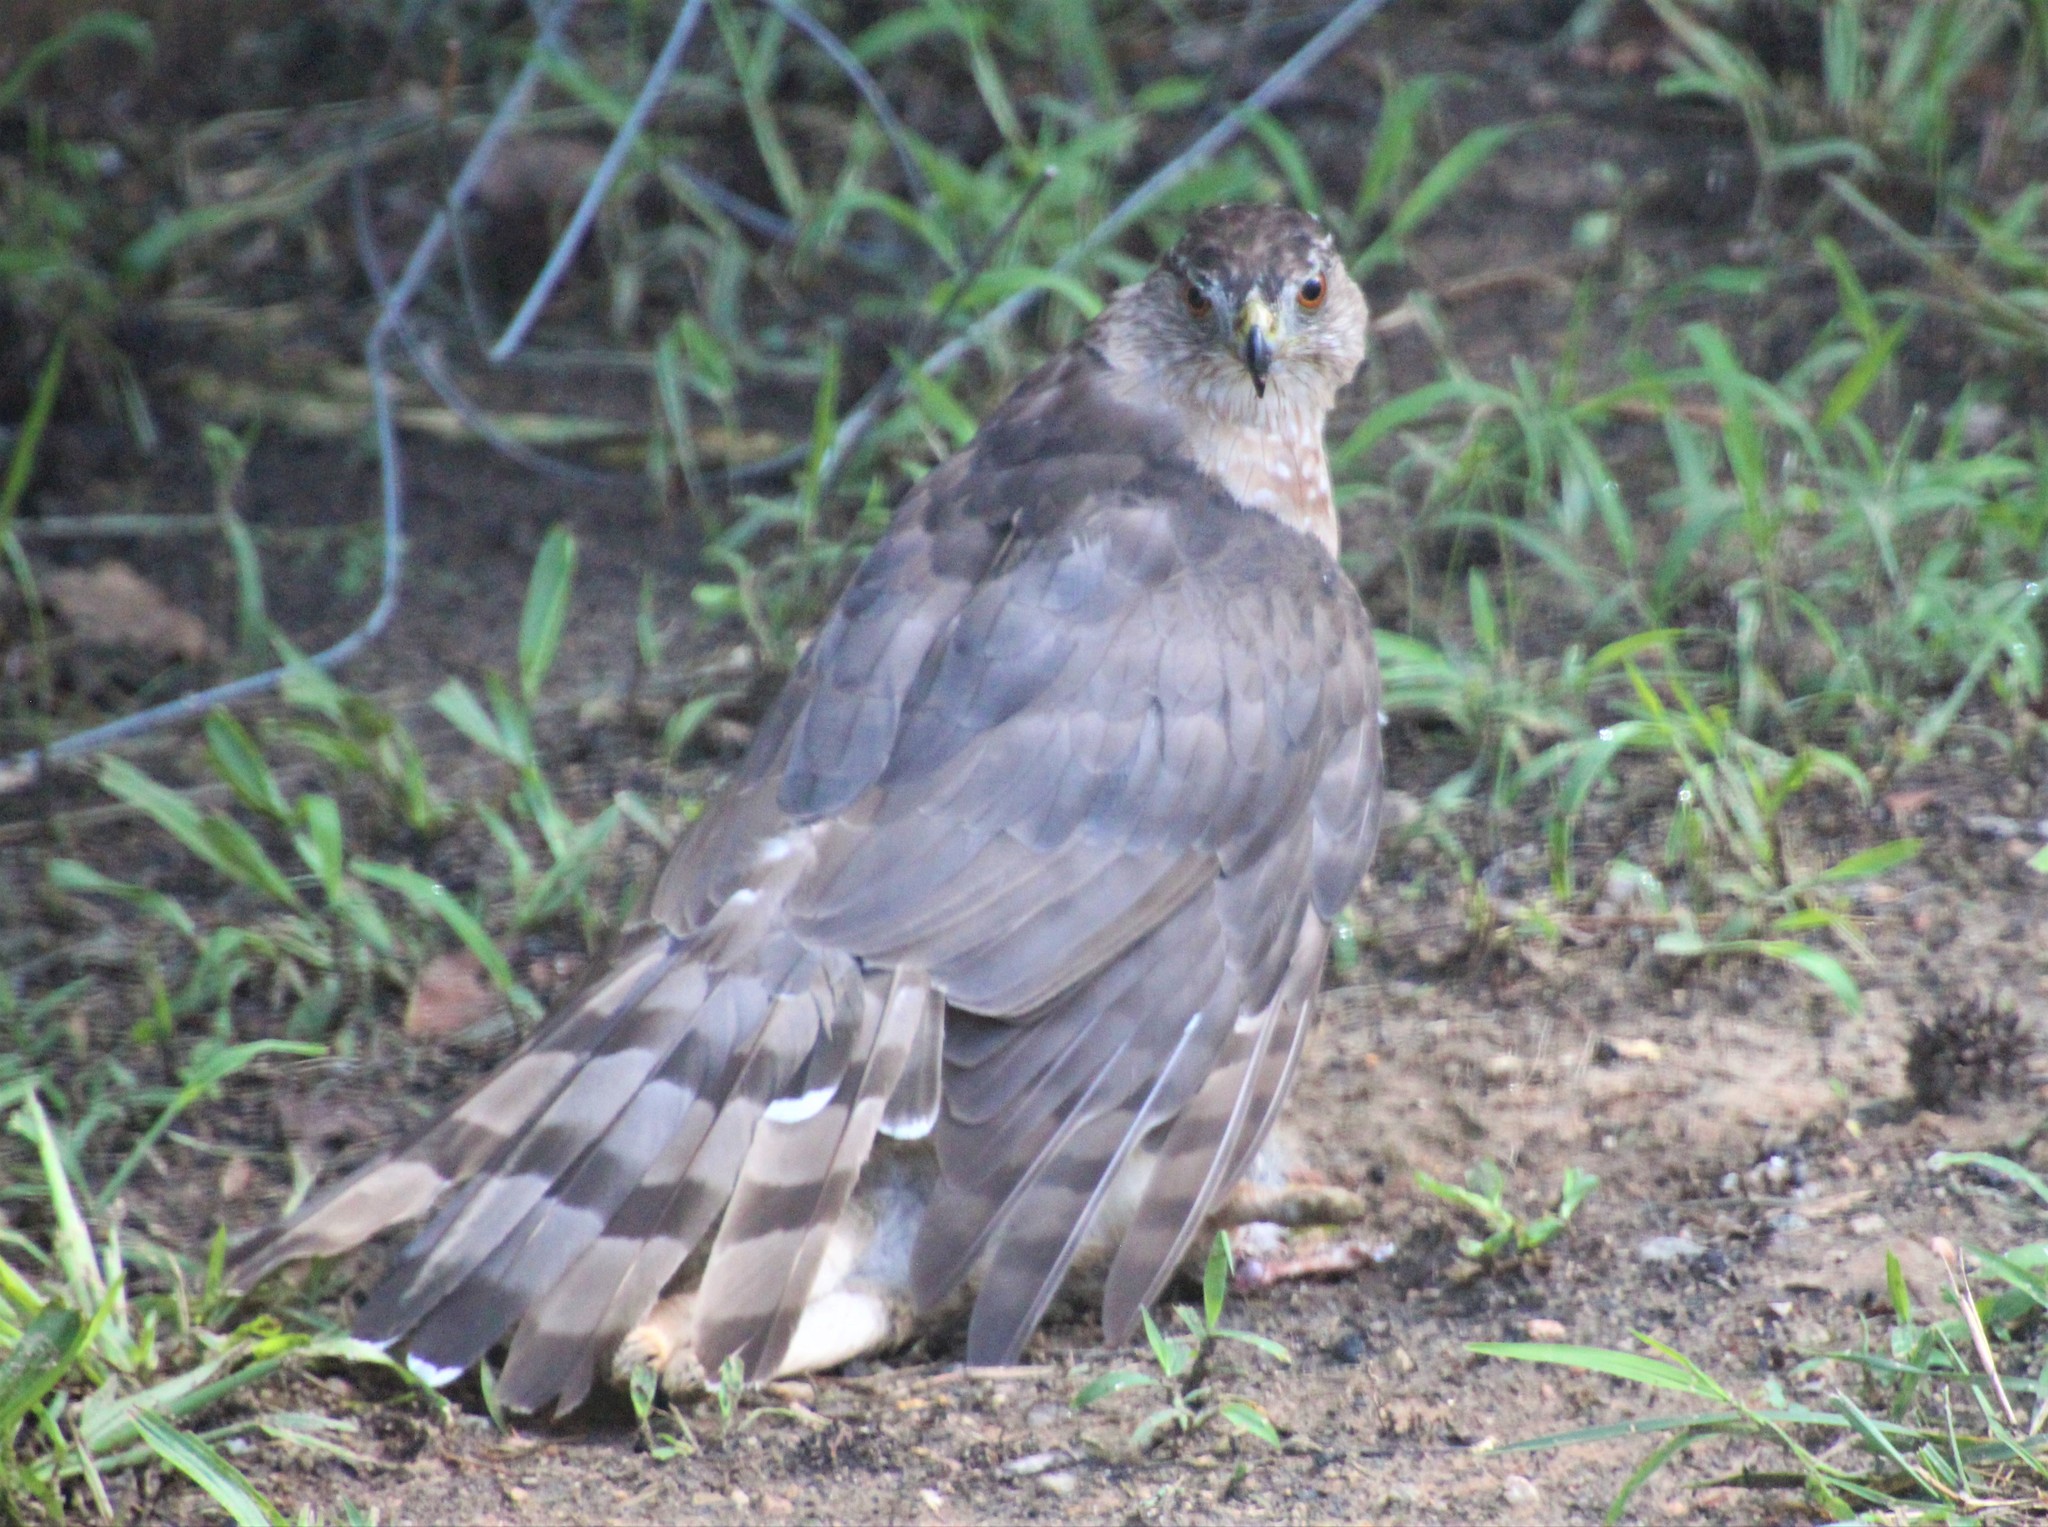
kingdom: Animalia
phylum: Chordata
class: Aves
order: Accipitriformes
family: Accipitridae
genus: Accipiter
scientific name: Accipiter cooperii
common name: Cooper's hawk
